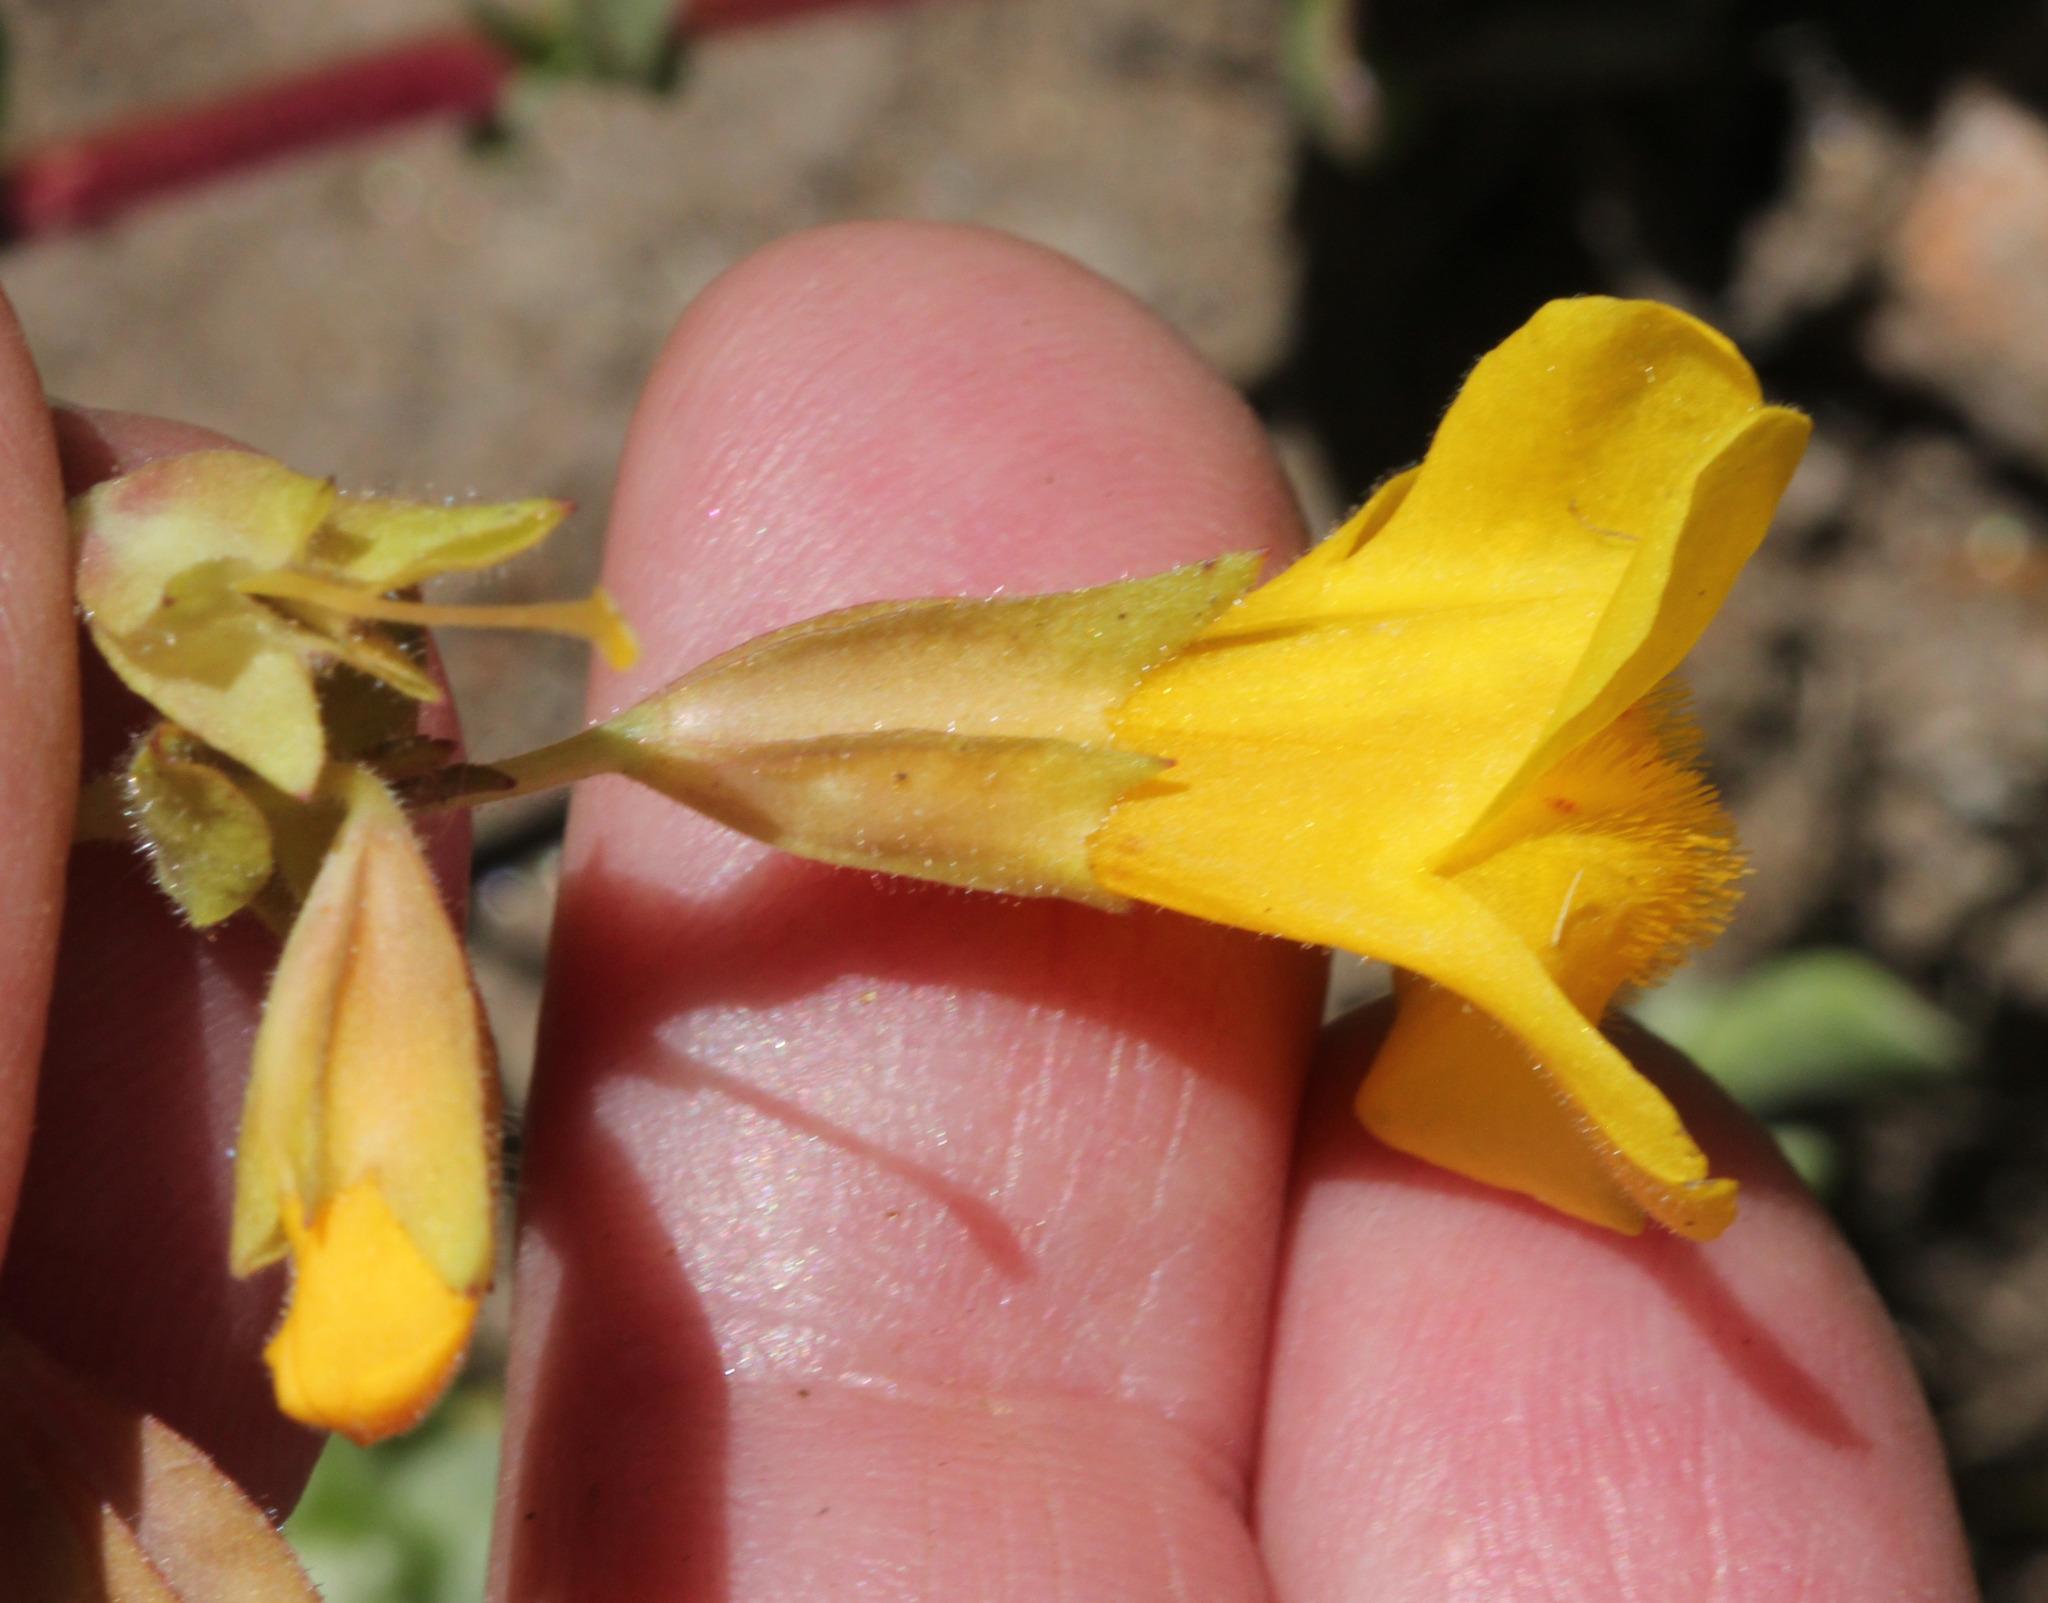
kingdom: Plantae
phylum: Tracheophyta
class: Magnoliopsida
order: Lamiales
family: Phrymaceae
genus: Erythranthe
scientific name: Erythranthe guttata
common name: Monkeyflower
